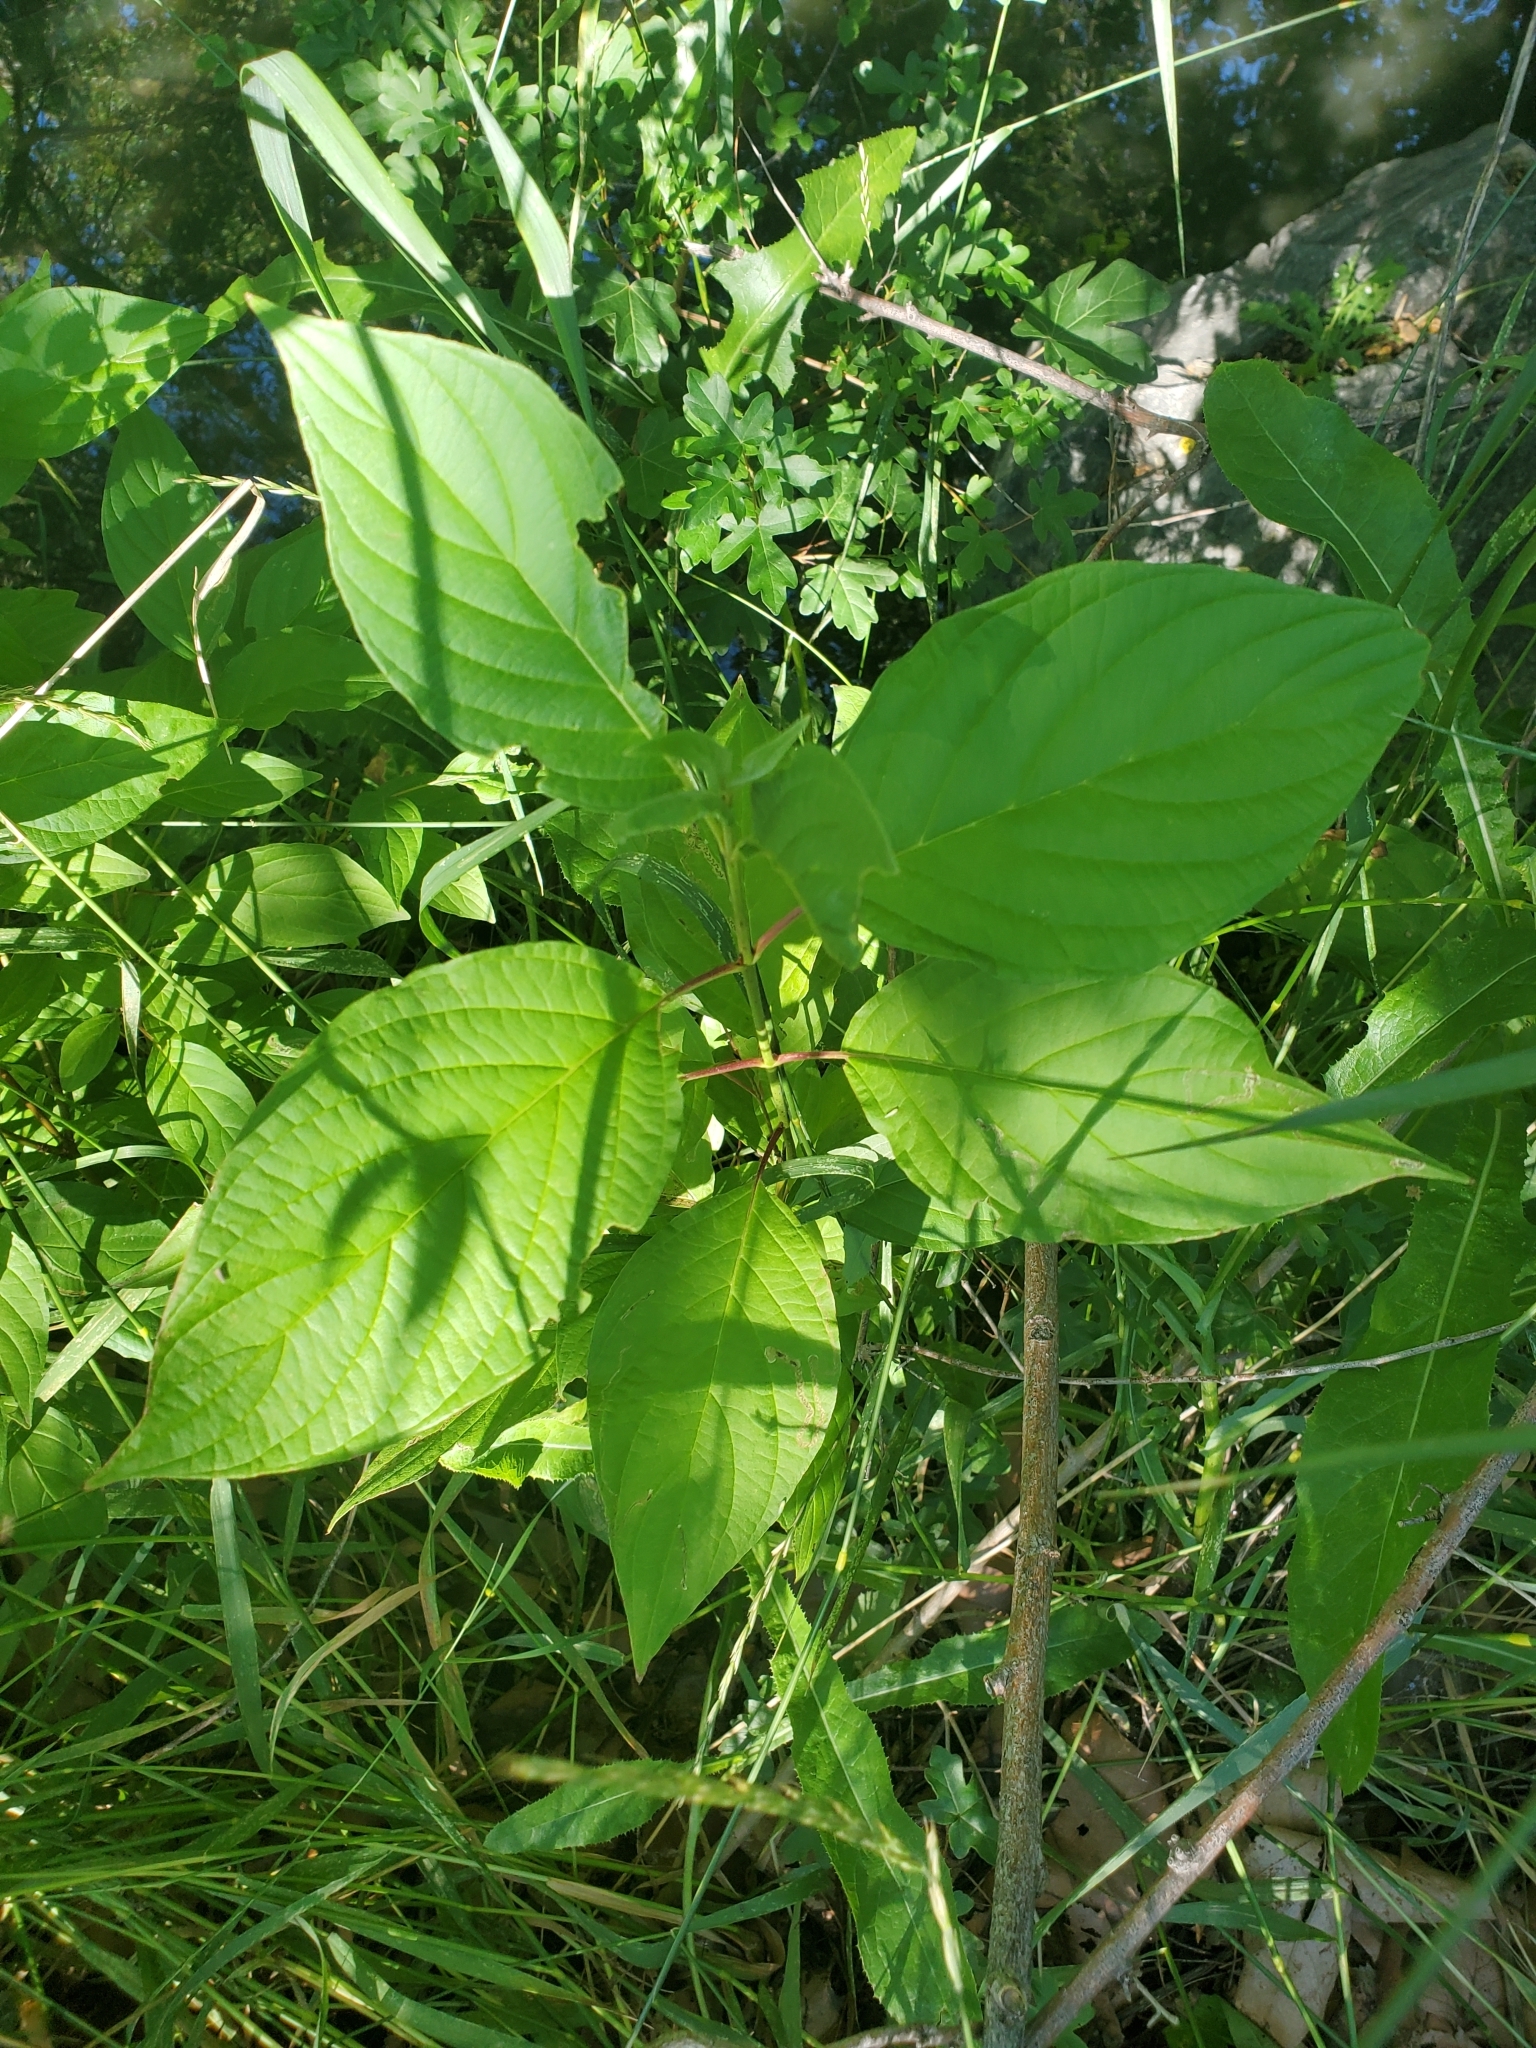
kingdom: Plantae
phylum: Tracheophyta
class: Magnoliopsida
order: Cornales
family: Cornaceae
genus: Cornus
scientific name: Cornus sericea
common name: Red-osier dogwood
